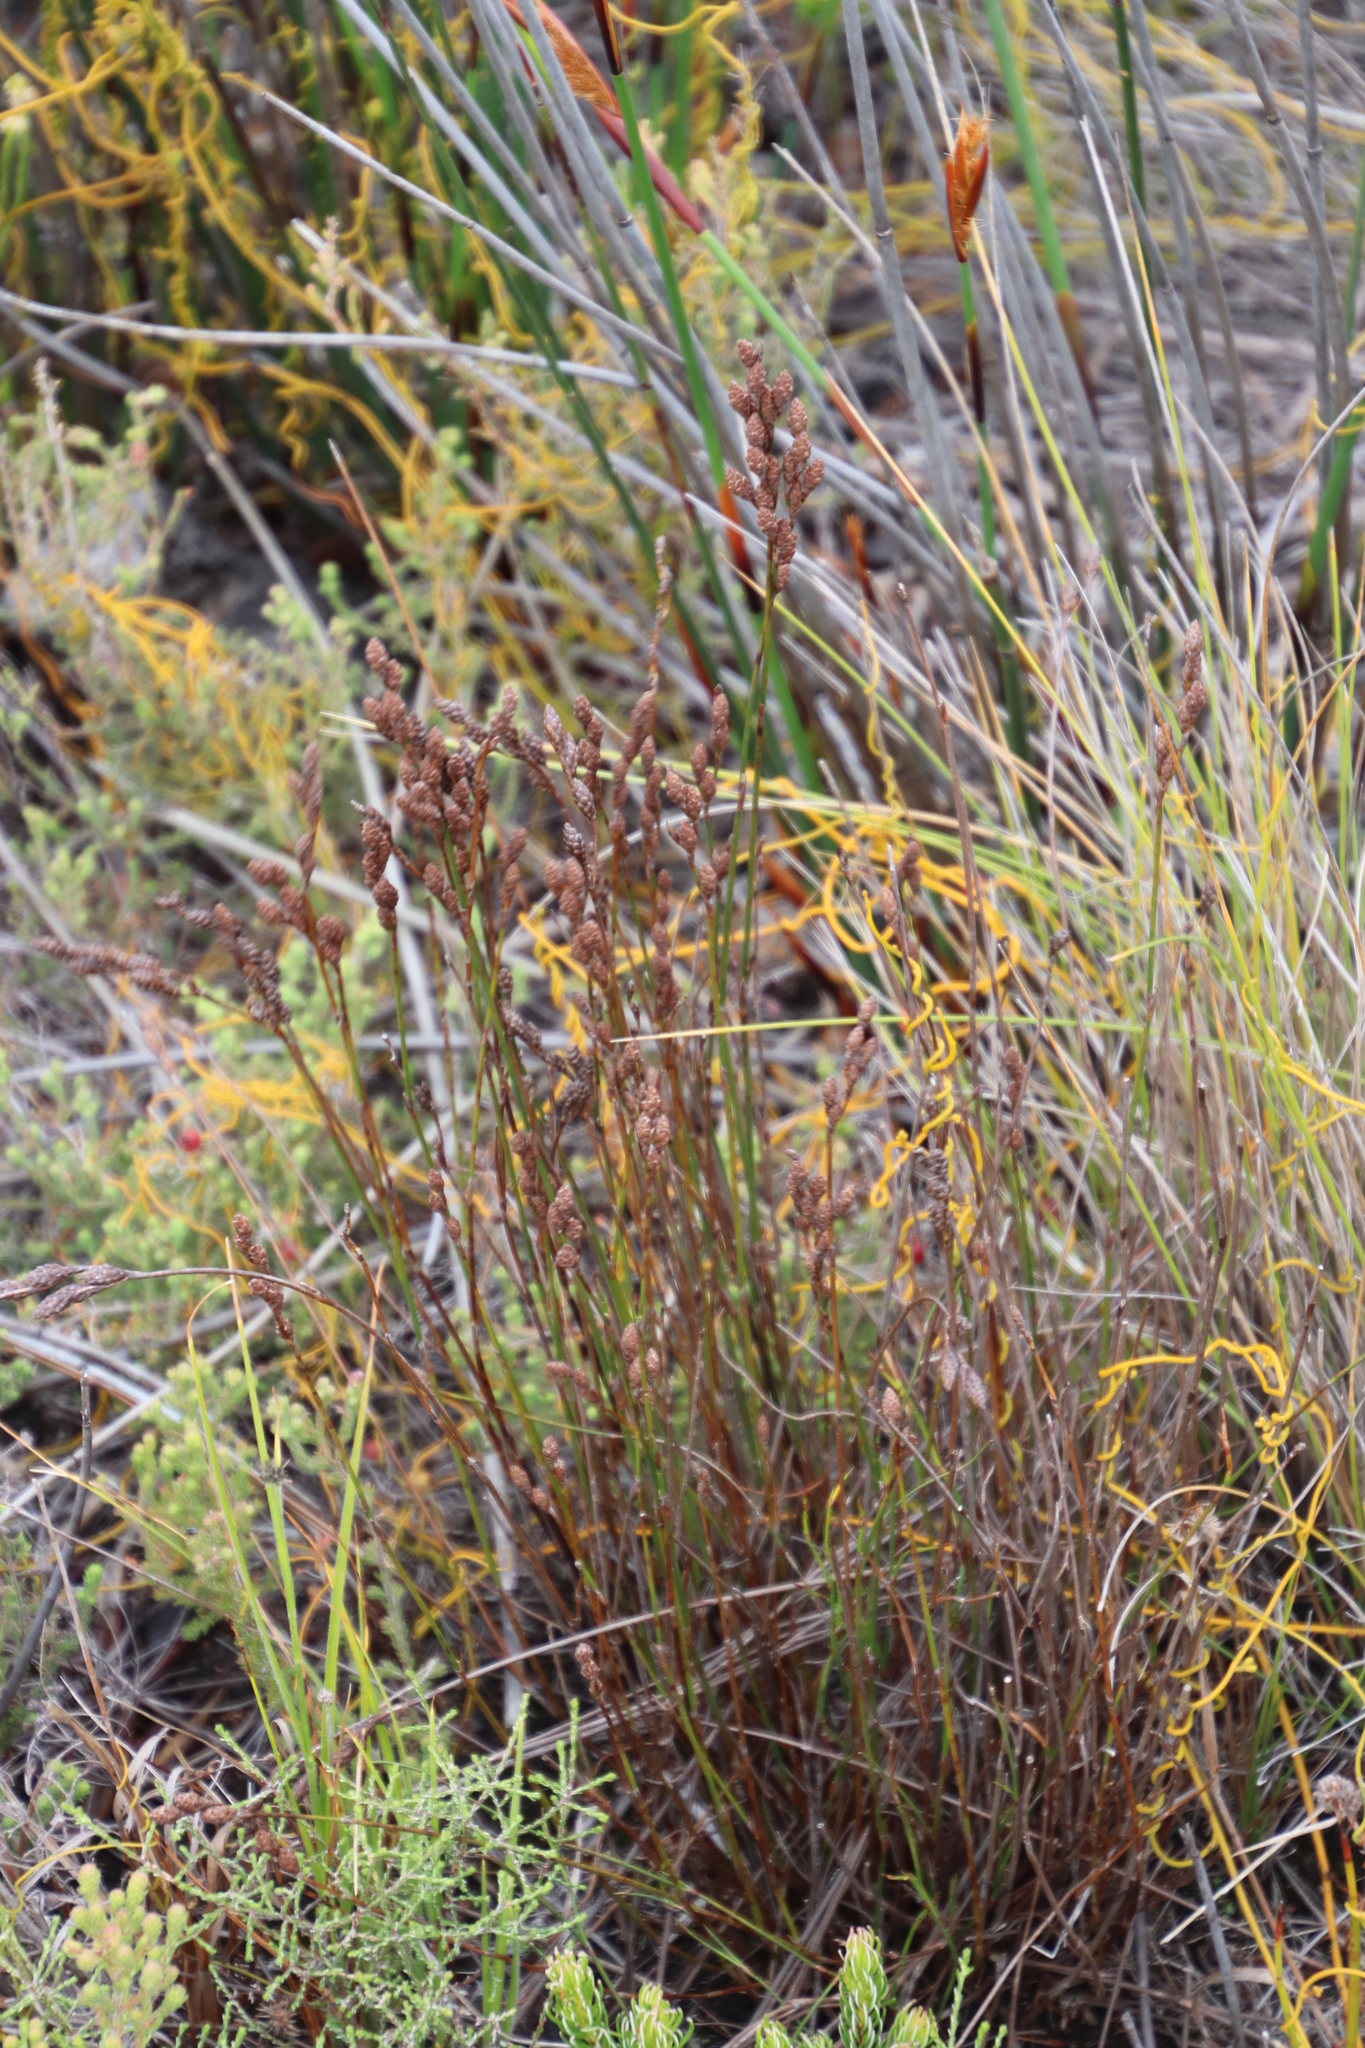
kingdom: Plantae
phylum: Tracheophyta
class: Liliopsida
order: Poales
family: Restionaceae
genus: Restio
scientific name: Restio bifurcus
